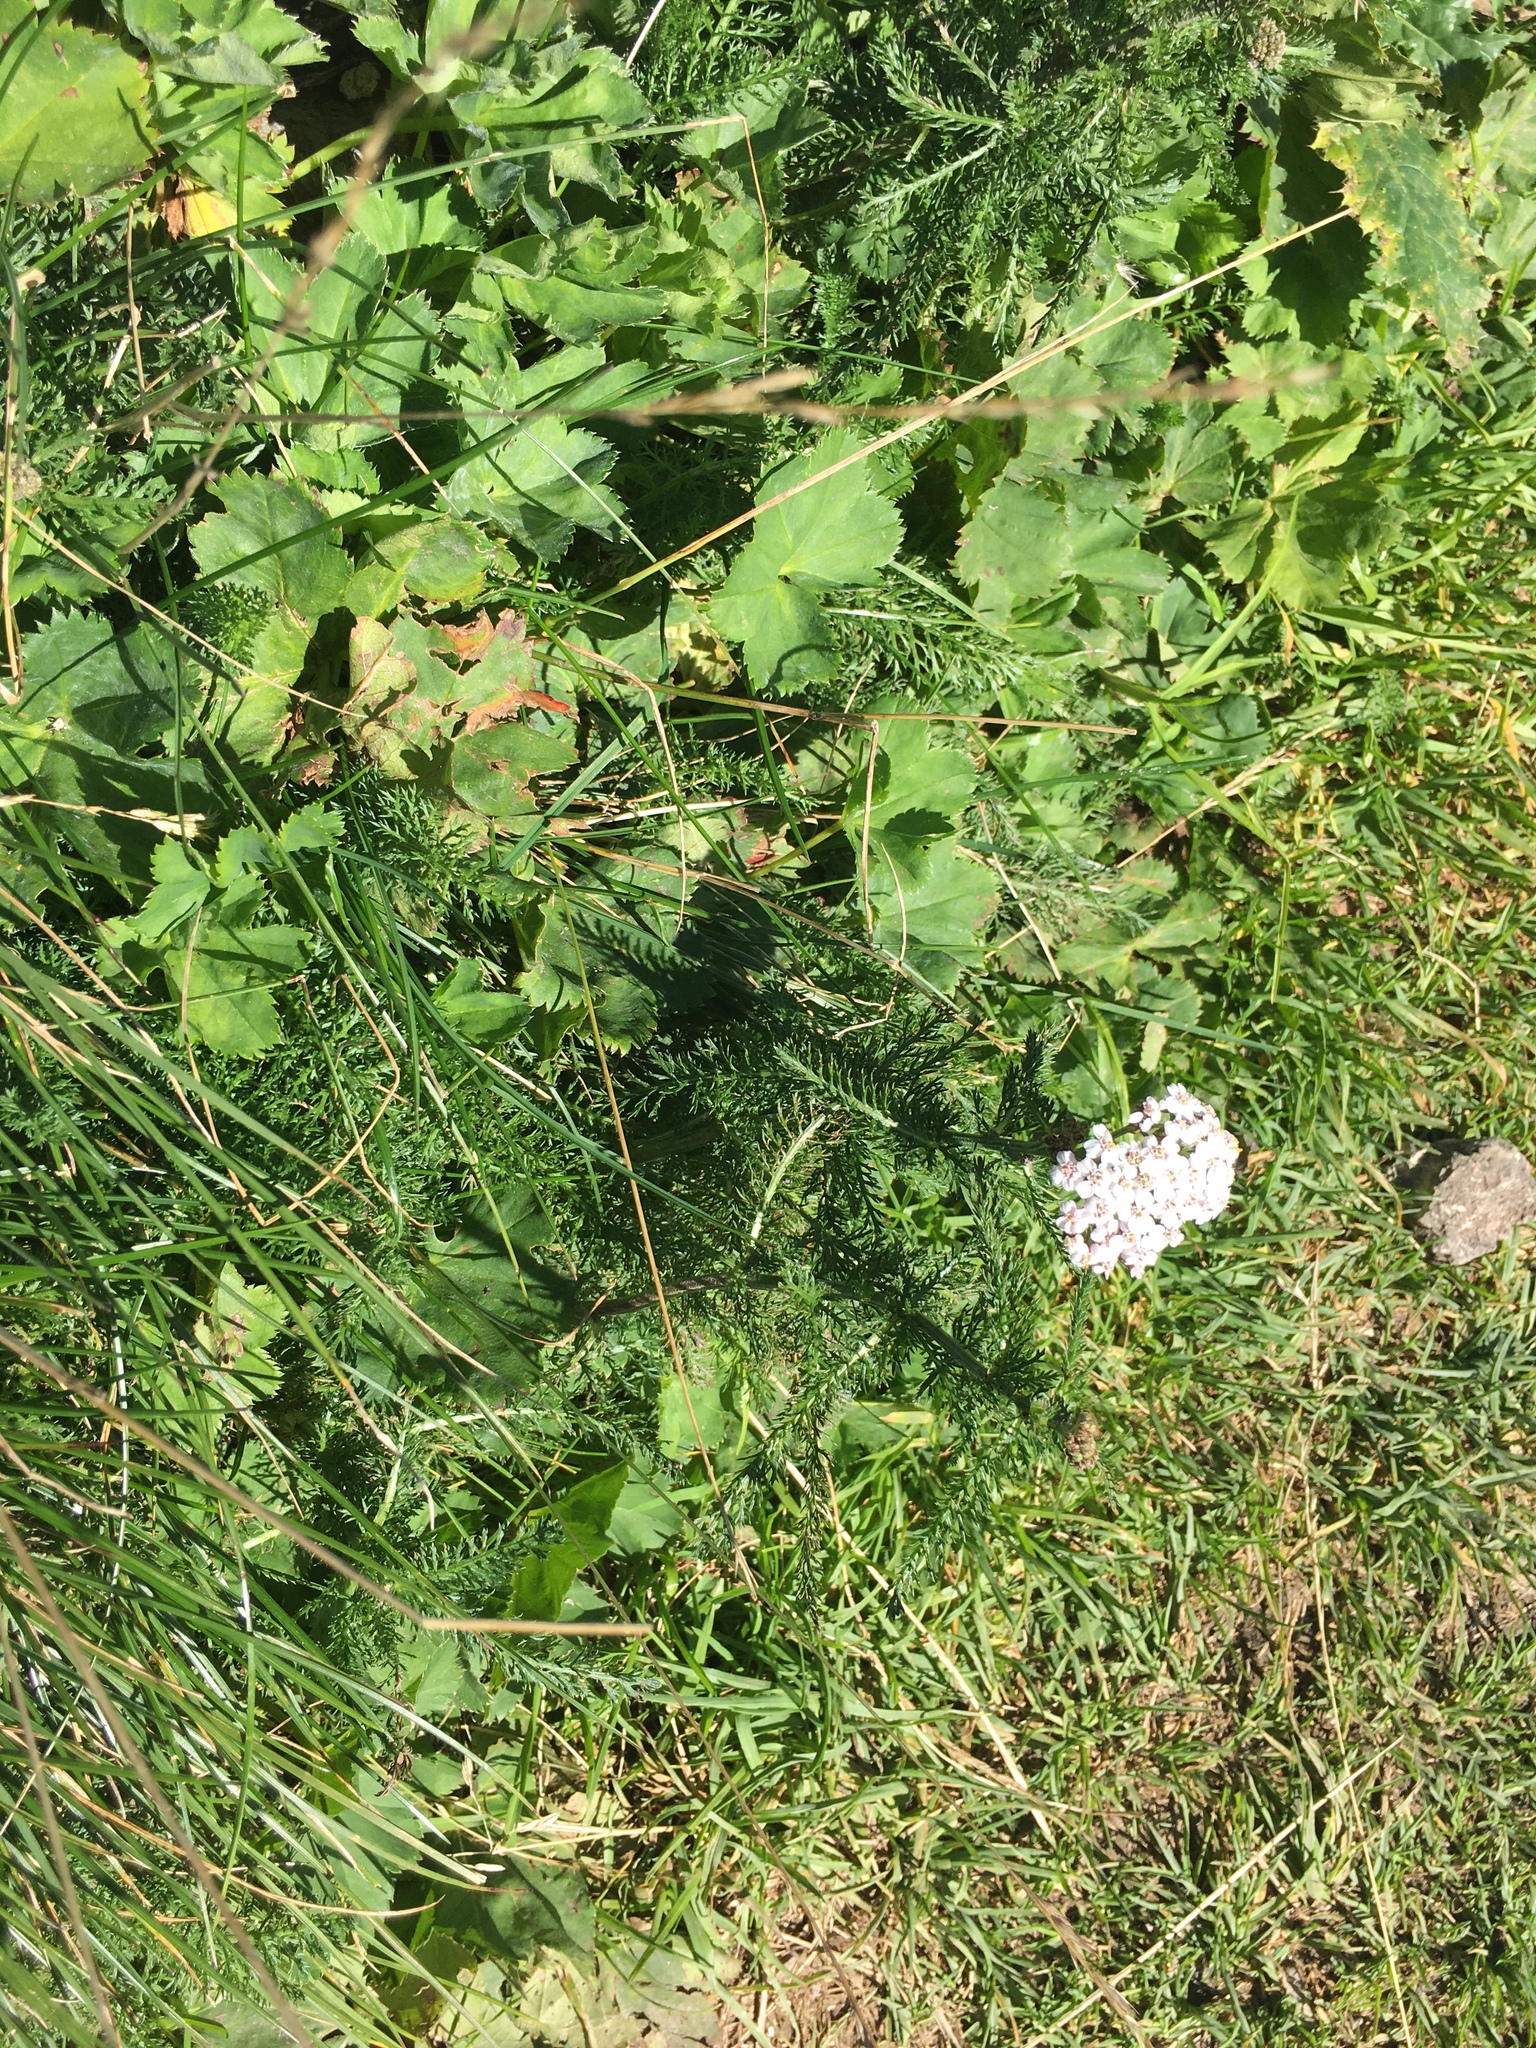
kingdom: Plantae
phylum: Tracheophyta
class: Magnoliopsida
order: Asterales
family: Asteraceae
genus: Achillea
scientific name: Achillea millefolium
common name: Yarrow
